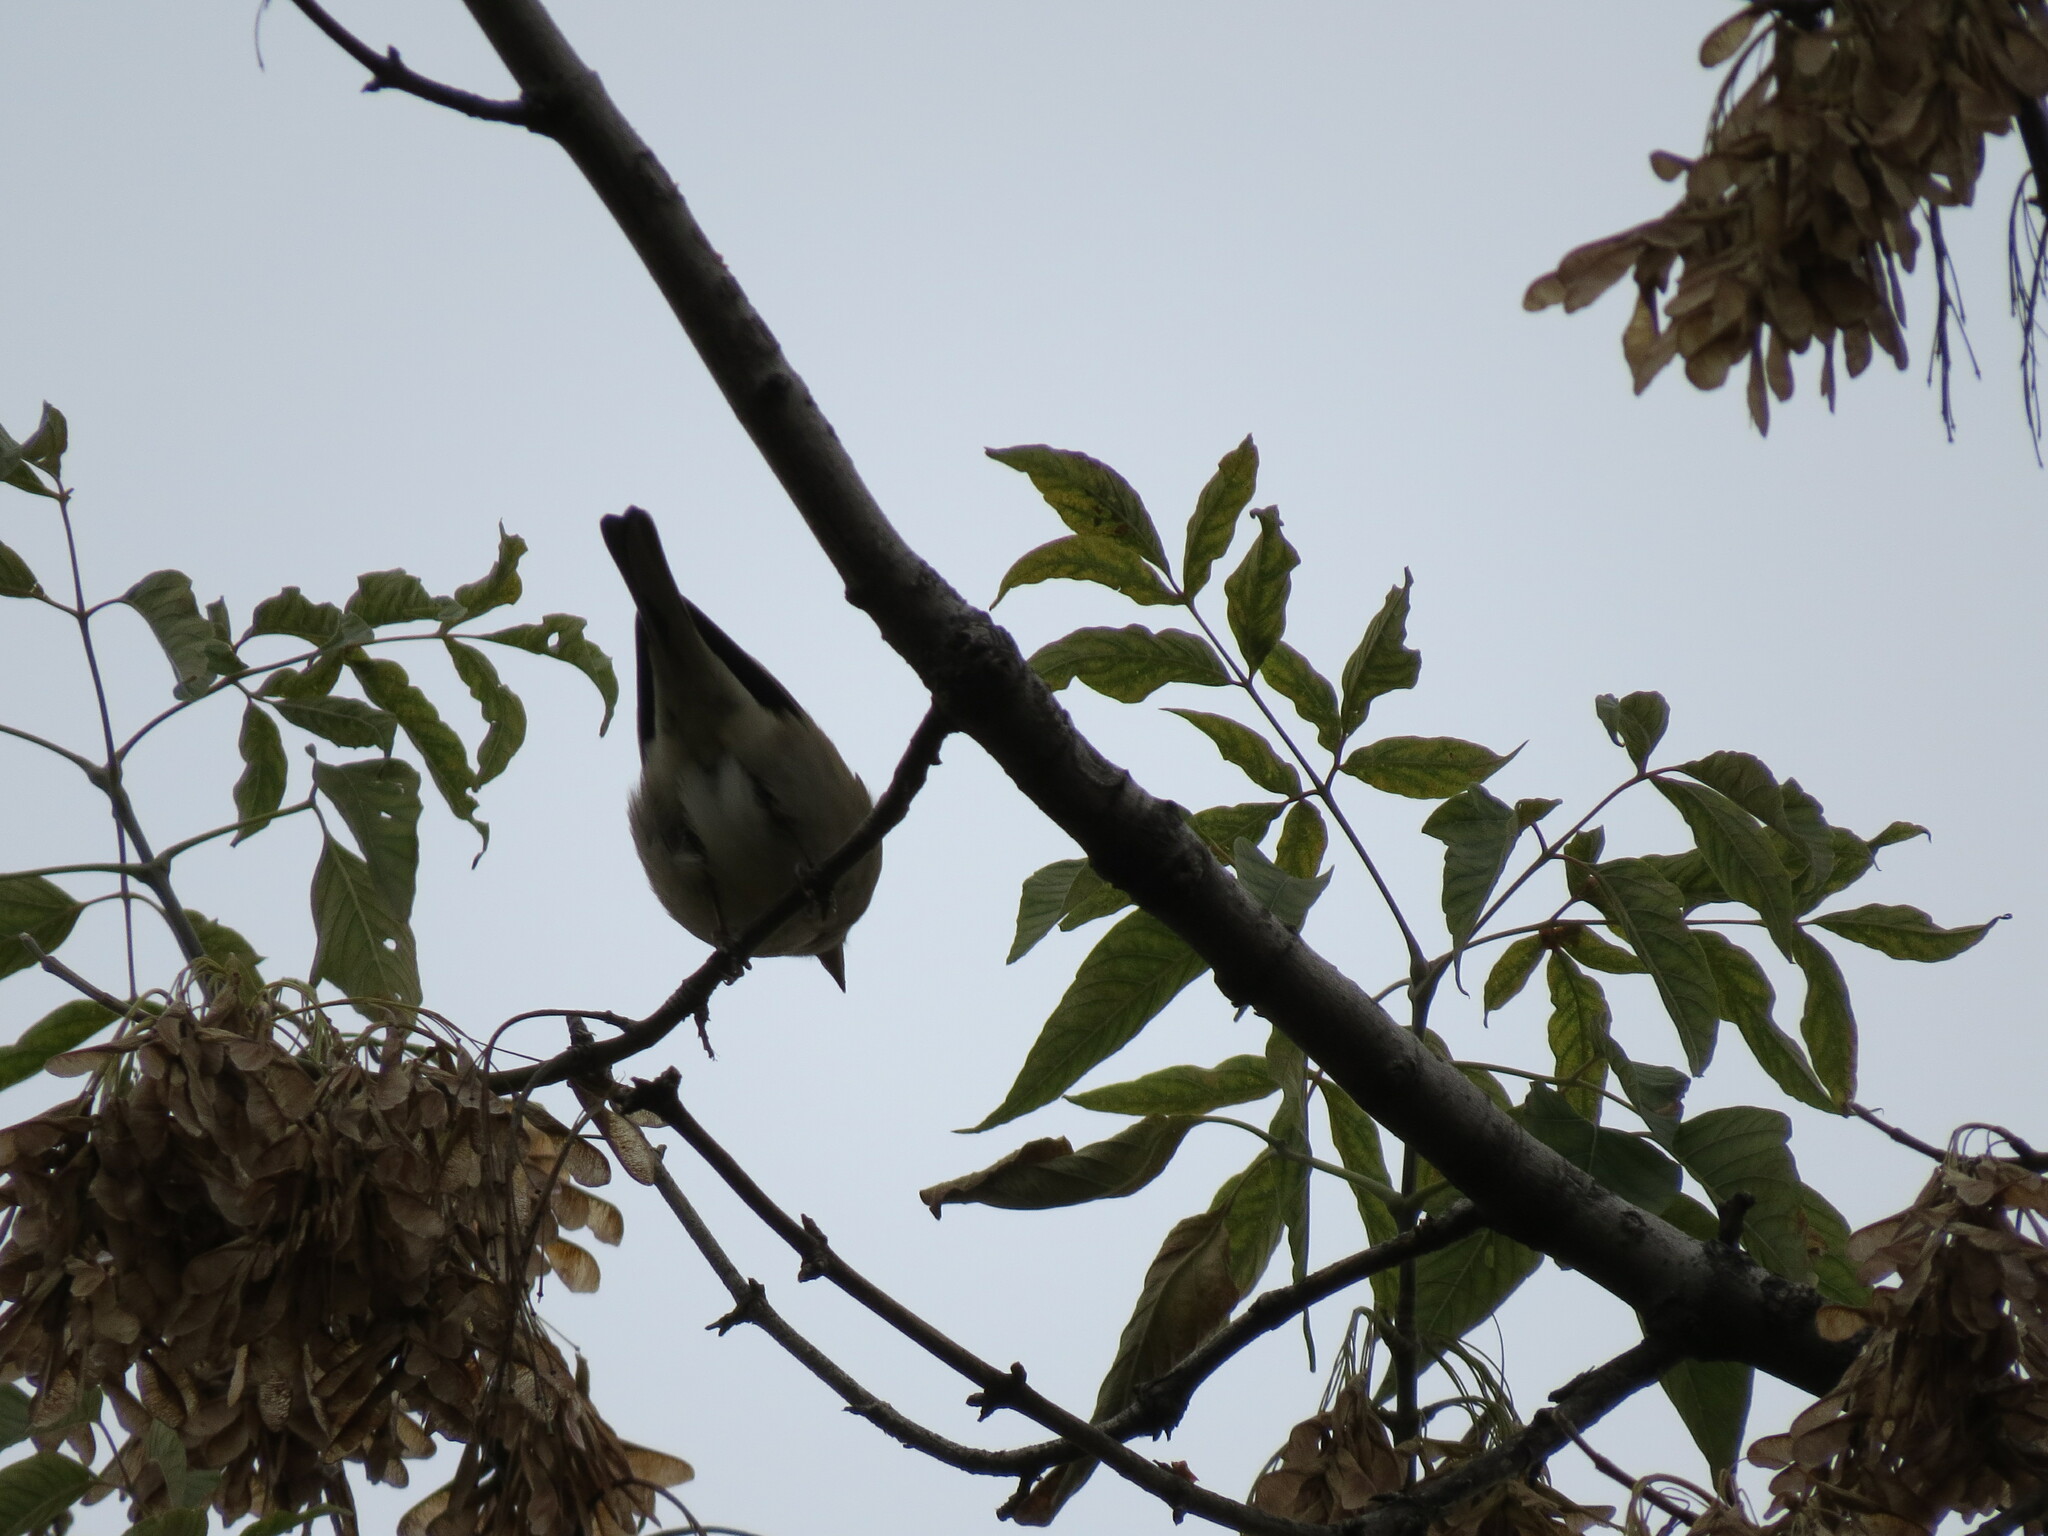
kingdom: Animalia
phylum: Chordata
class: Aves
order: Passeriformes
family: Fringillidae
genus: Fringilla
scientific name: Fringilla coelebs
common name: Common chaffinch
